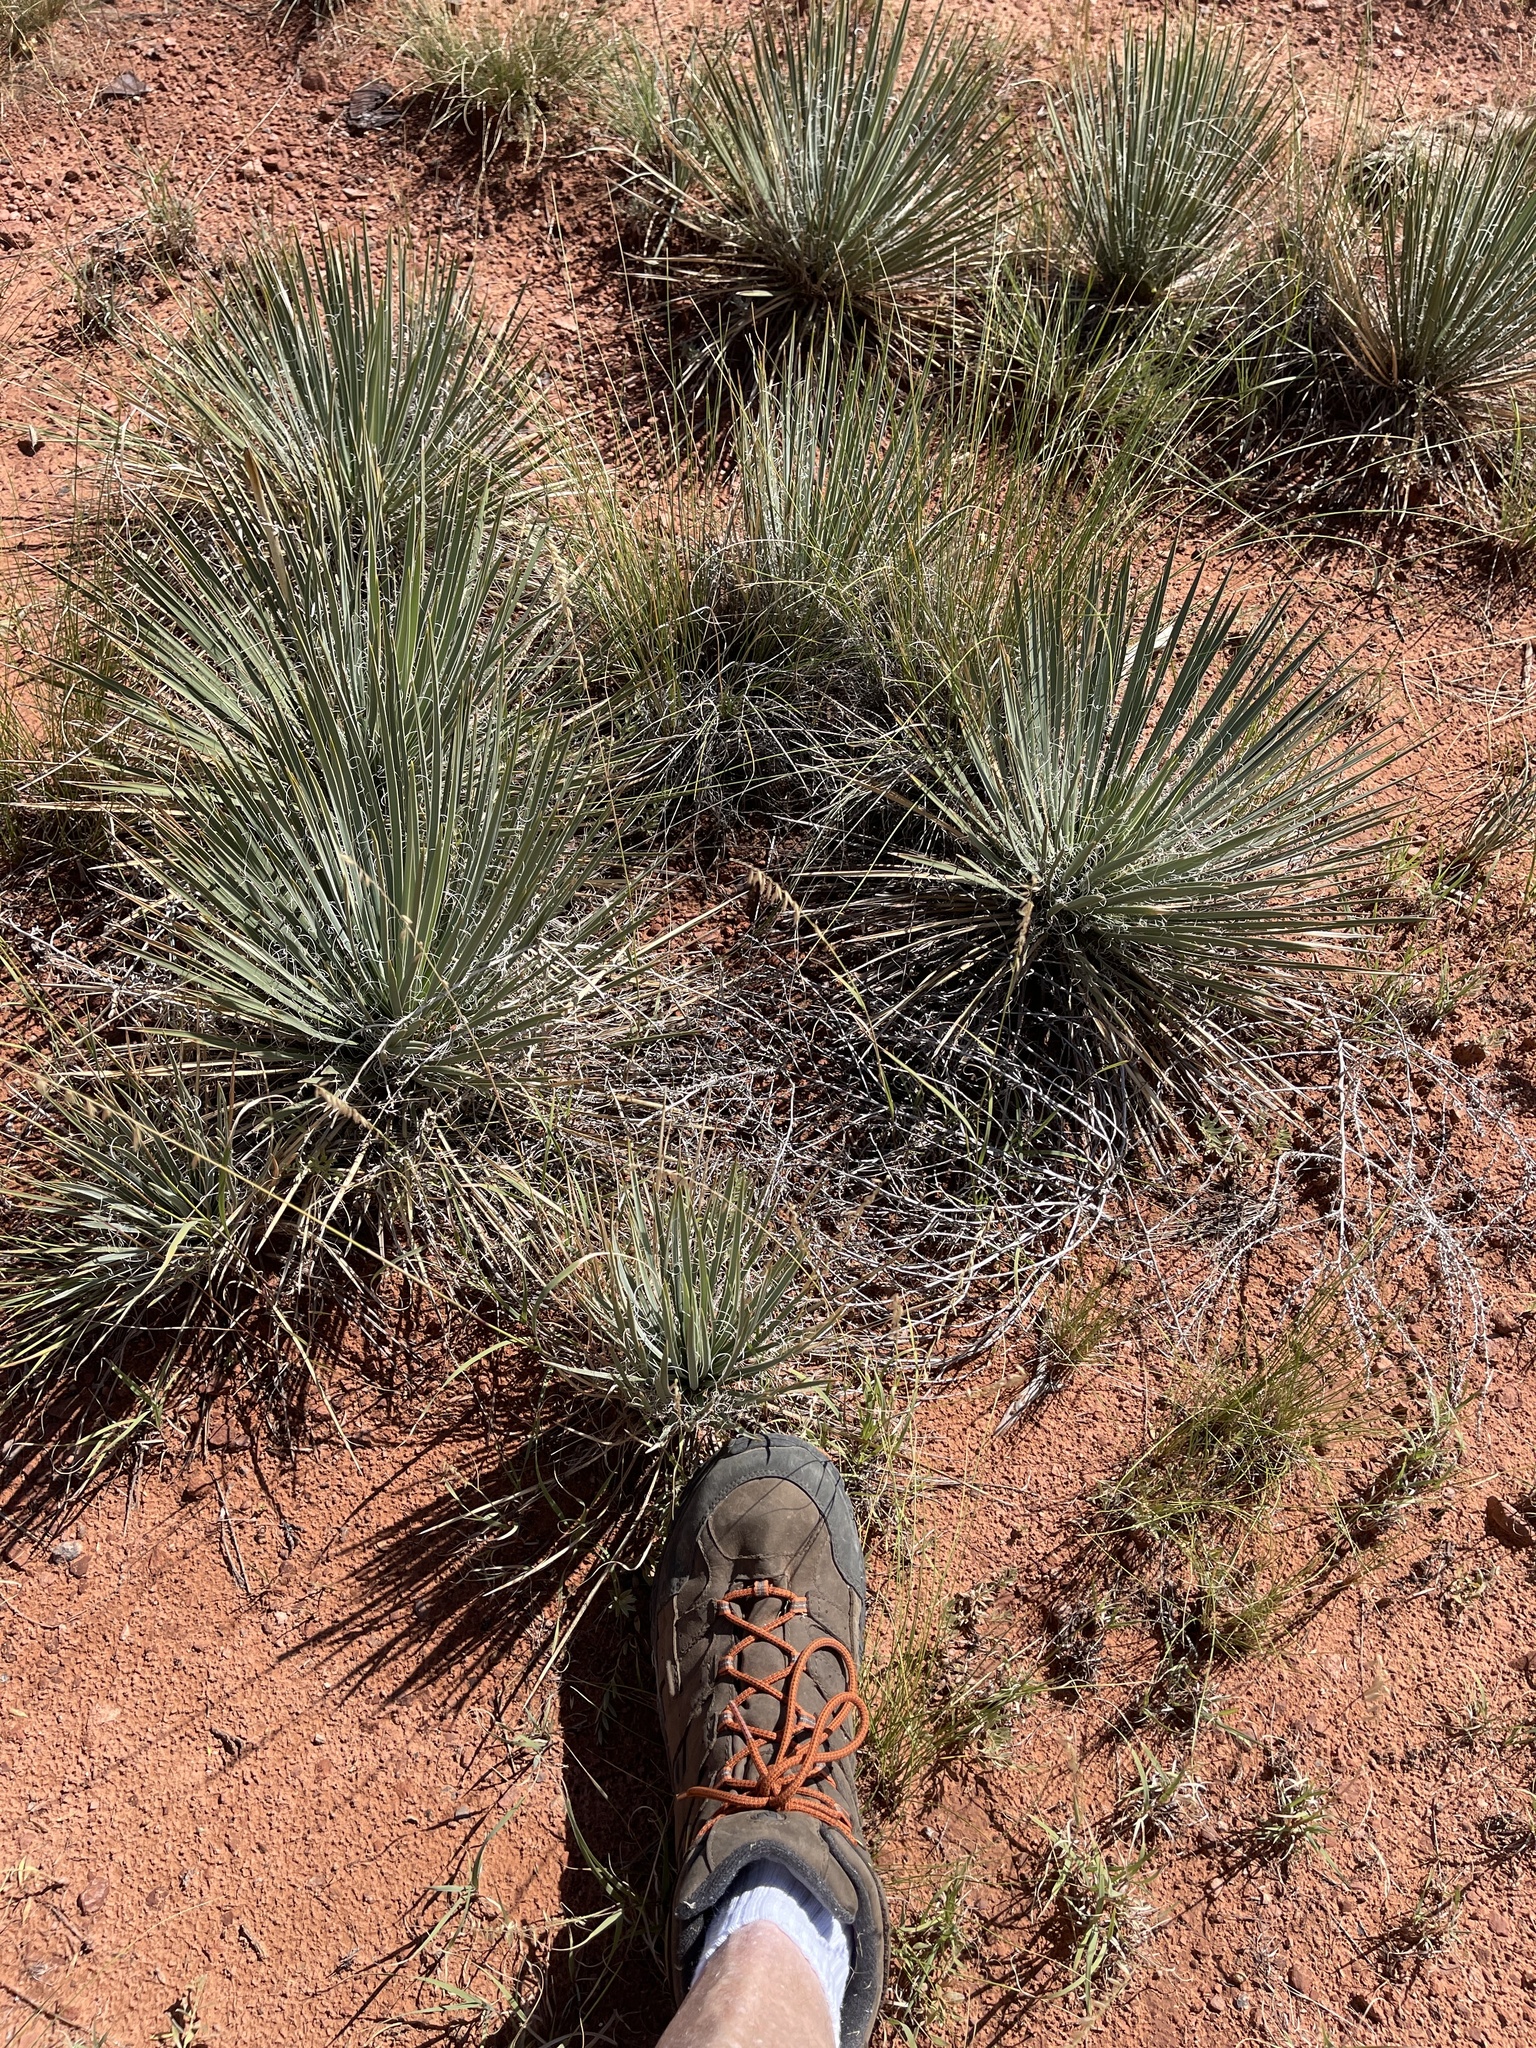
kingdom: Plantae
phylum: Tracheophyta
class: Liliopsida
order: Asparagales
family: Asparagaceae
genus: Yucca
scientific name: Yucca angustissima
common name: Narrowleaf yucca
